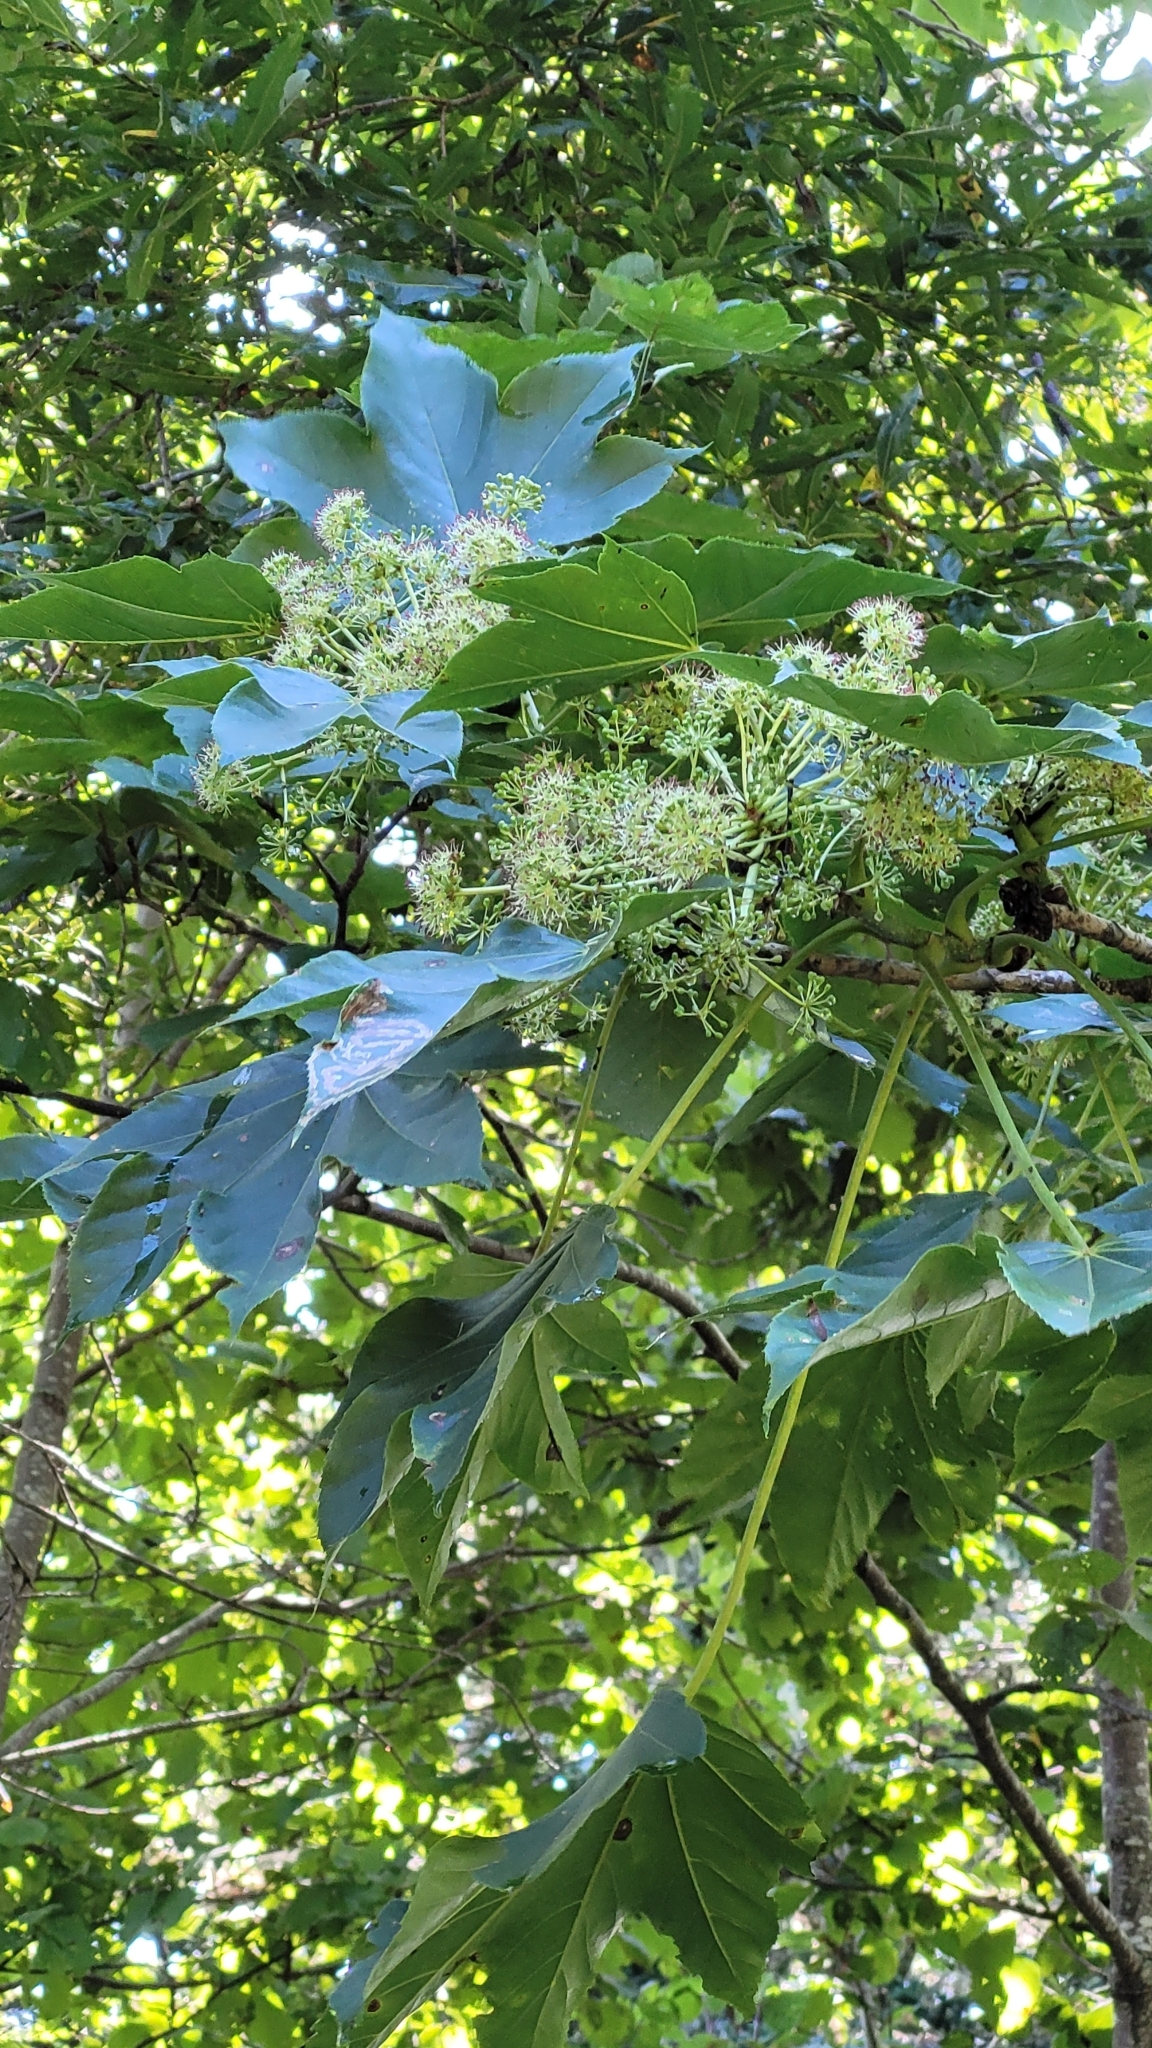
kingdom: Plantae
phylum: Tracheophyta
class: Magnoliopsida
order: Apiales
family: Araliaceae
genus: Kalopanax
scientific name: Kalopanax septemlobus
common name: Castor aralia
